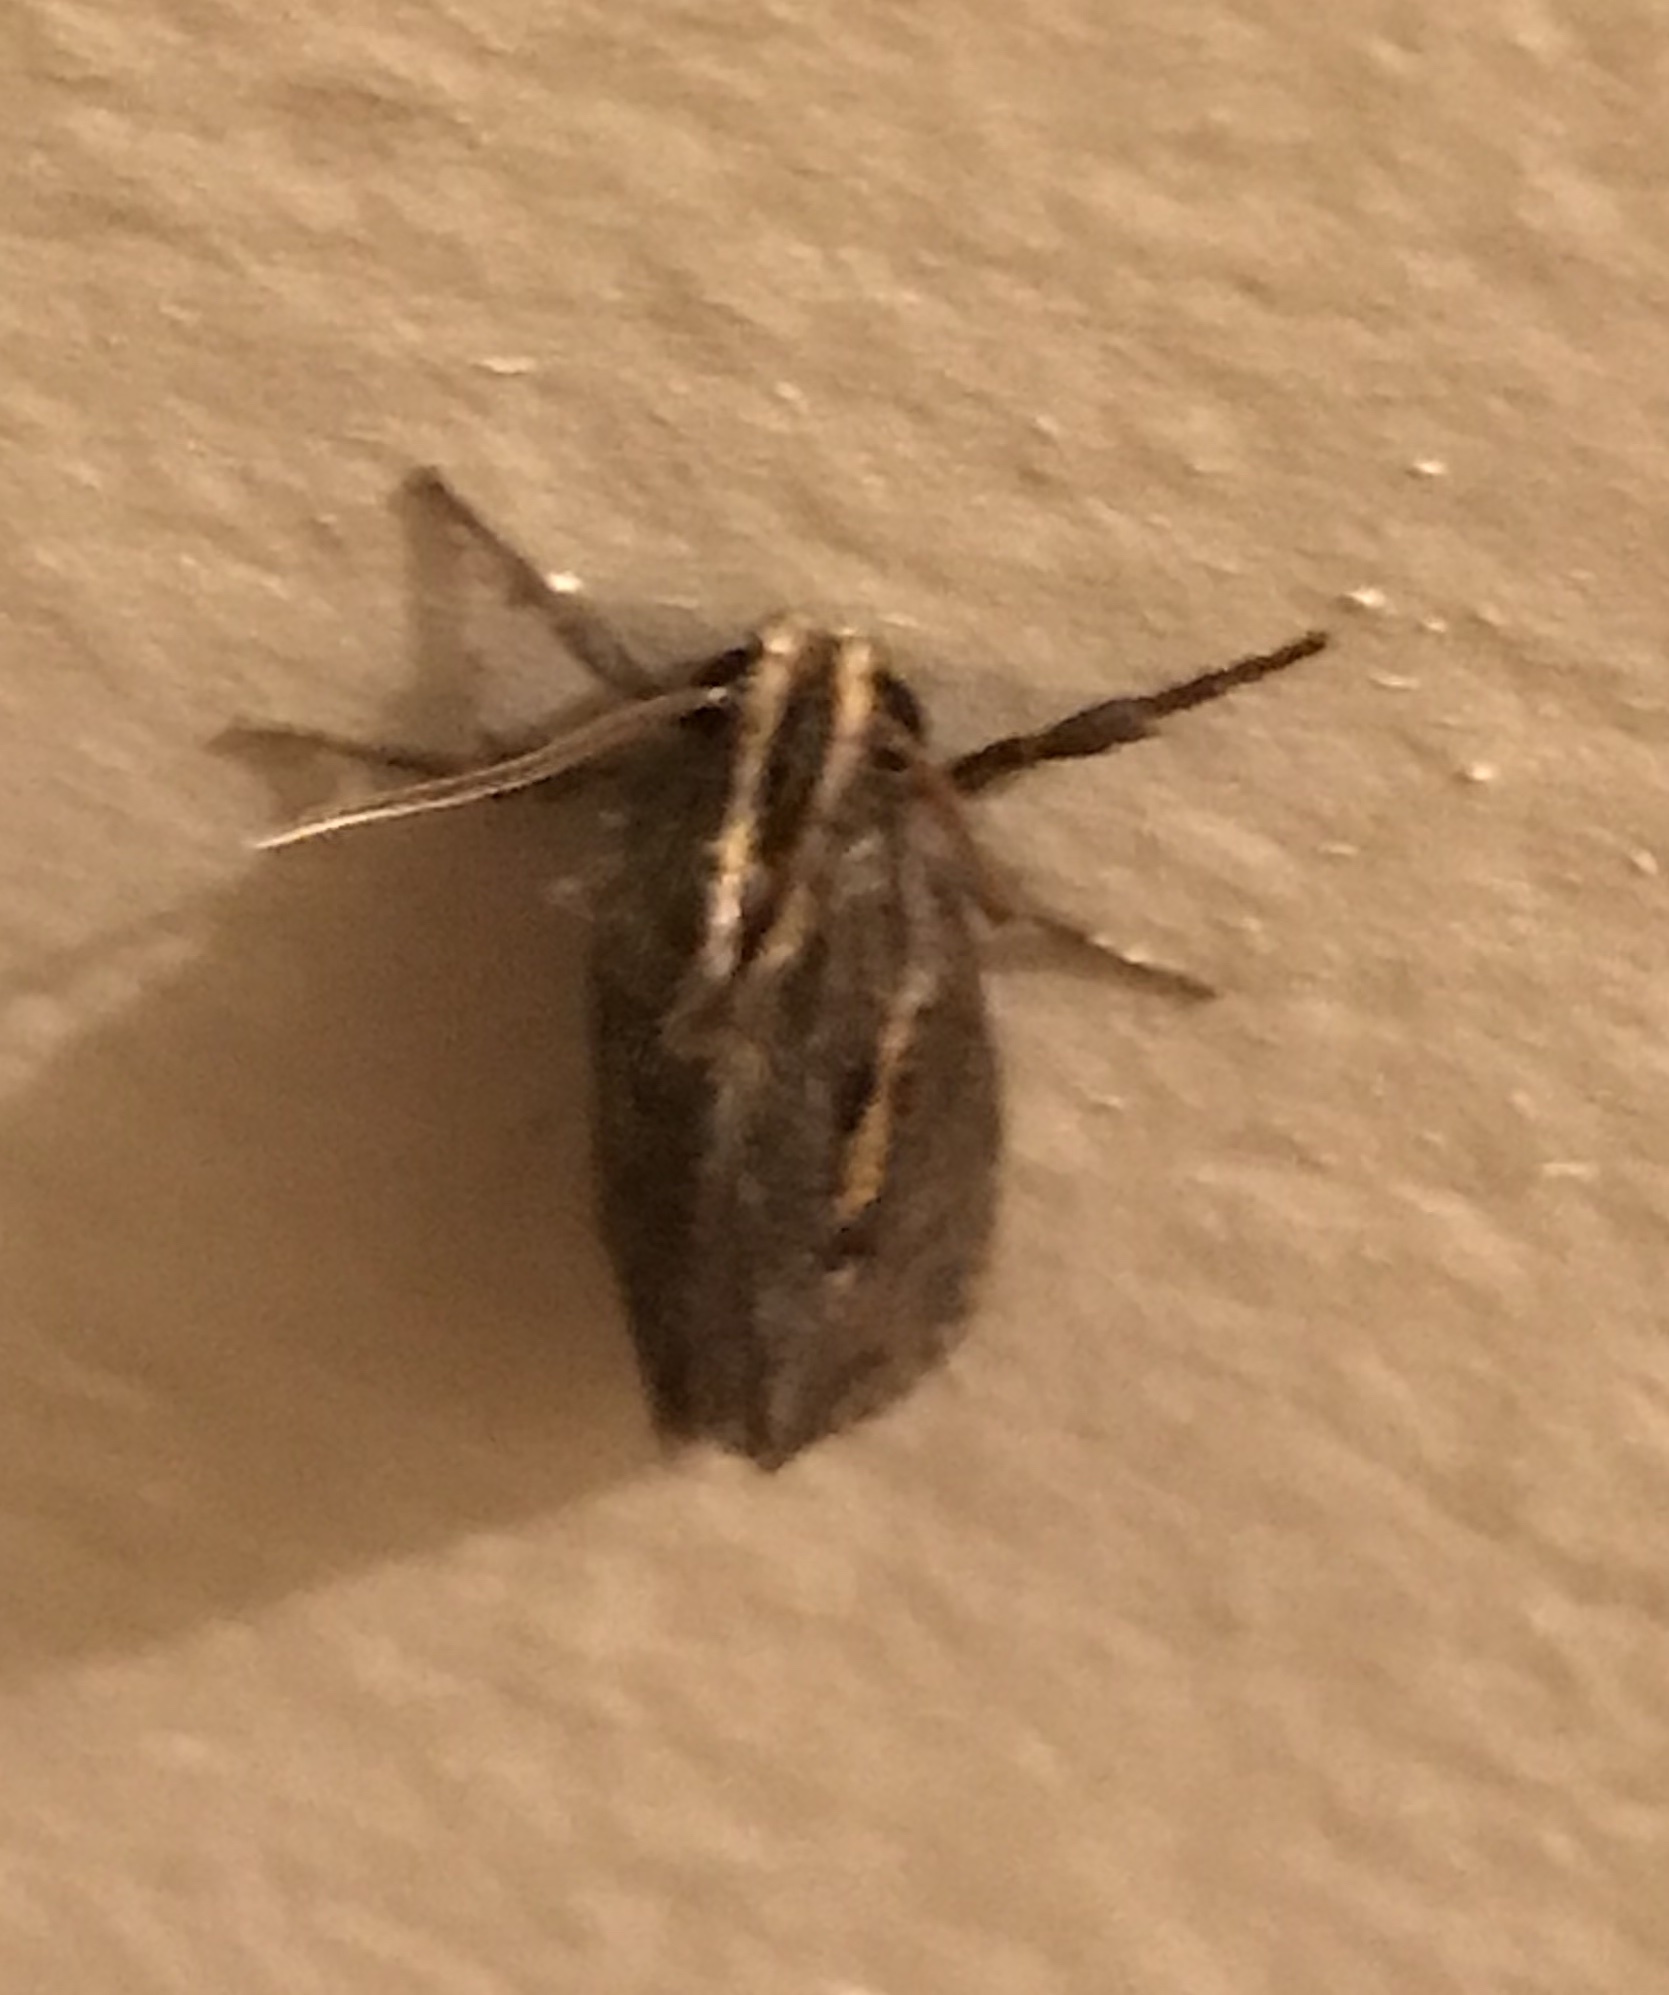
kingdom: Animalia
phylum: Arthropoda
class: Insecta
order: Lepidoptera
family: Tineidae
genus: Acrolophus
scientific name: Acrolophus popeanella
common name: Clemens' grass tubeworm moth
